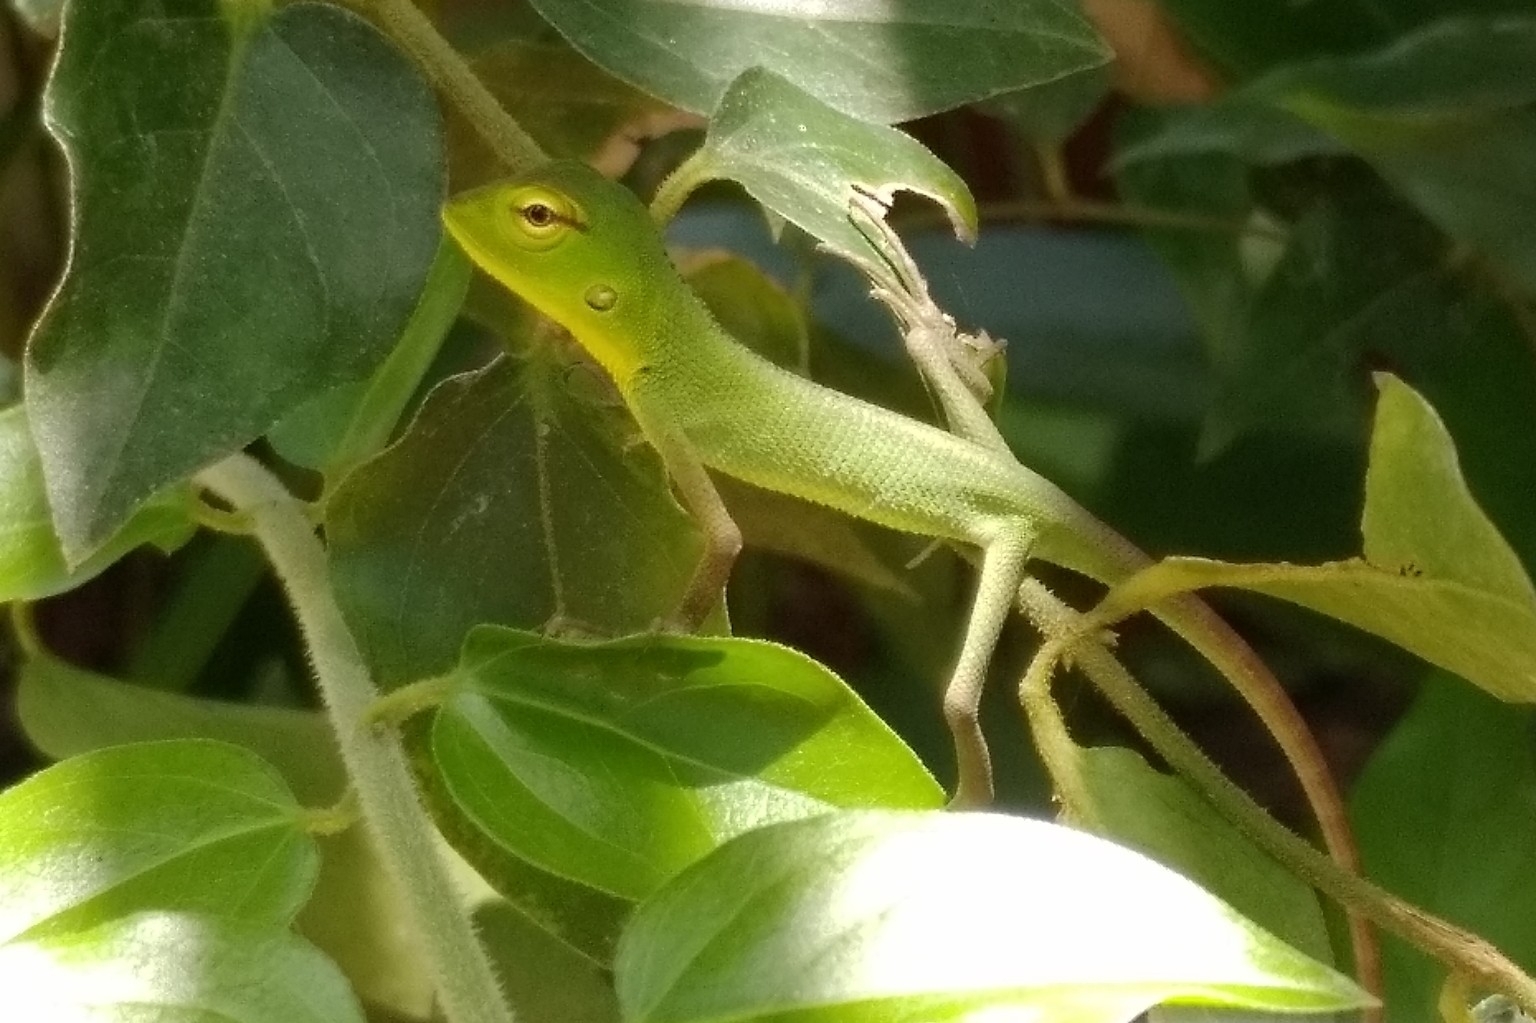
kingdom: Animalia
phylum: Chordata
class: Squamata
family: Agamidae
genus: Calotes
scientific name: Calotes calotes
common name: Common green forest lizard
